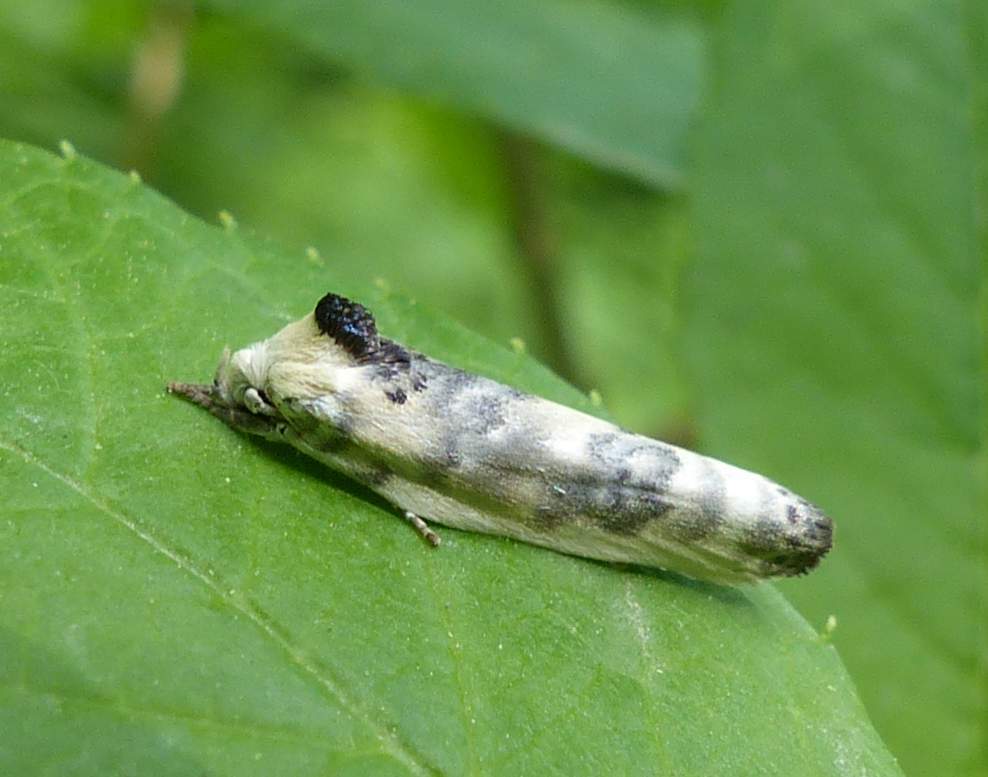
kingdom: Animalia
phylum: Arthropoda
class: Insecta
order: Lepidoptera
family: Depressariidae
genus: Antaeotricha
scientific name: Antaeotricha schlaegeri
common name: Schlaeger's fruitworm moth
